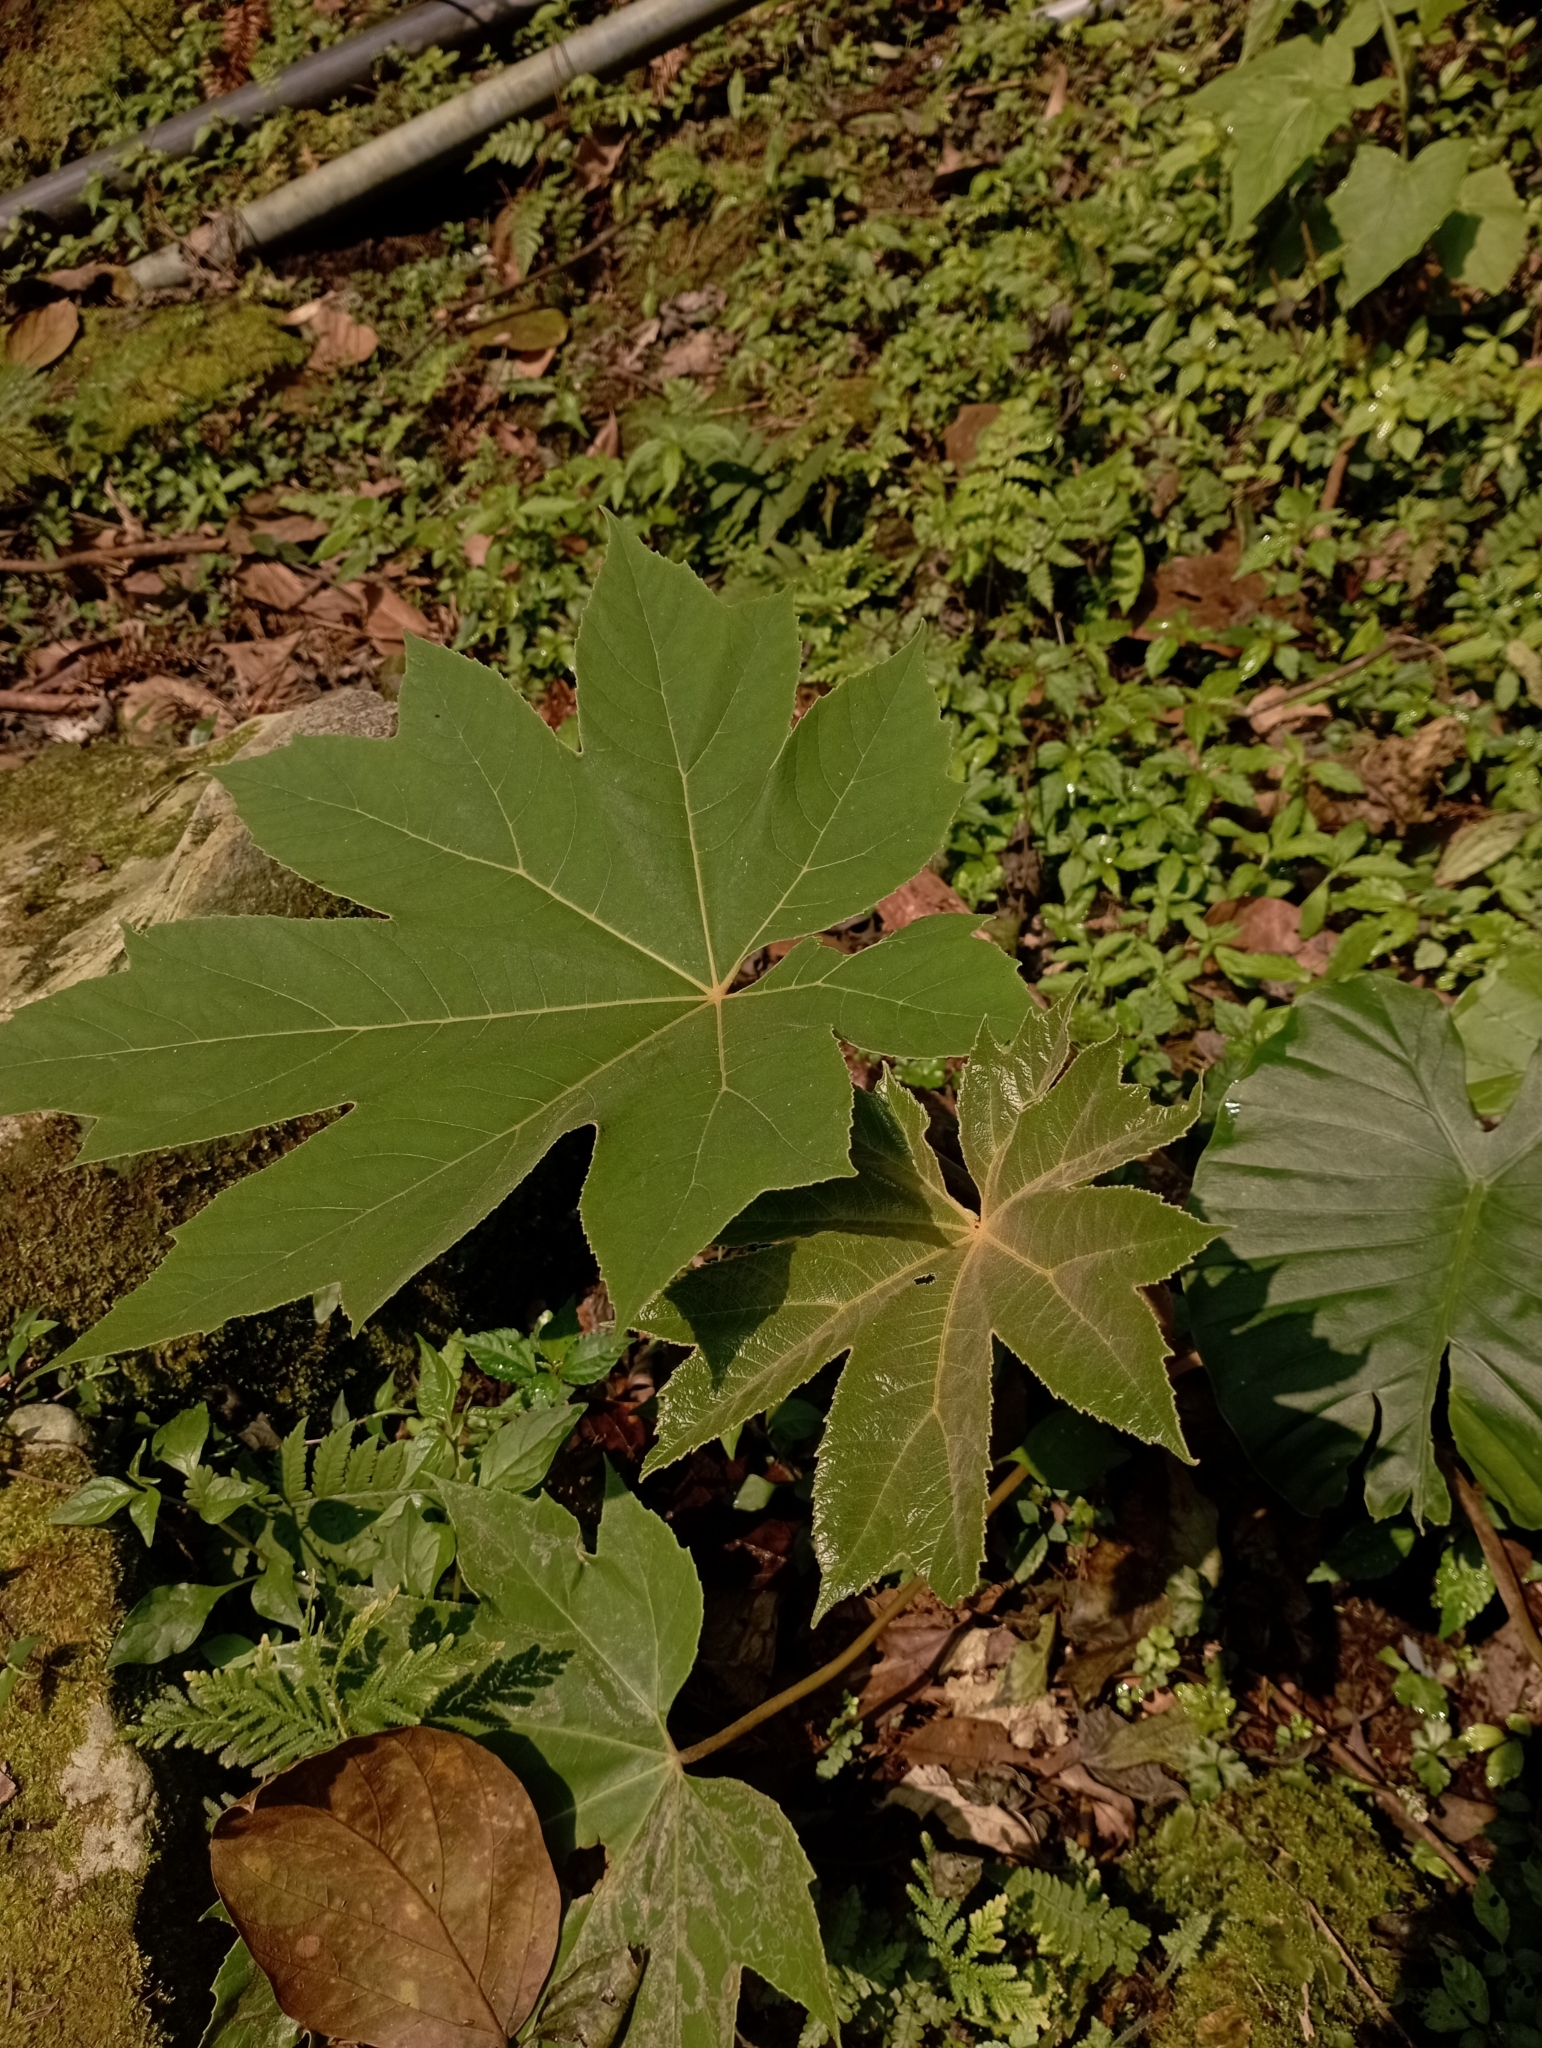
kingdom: Plantae
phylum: Tracheophyta
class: Magnoliopsida
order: Apiales
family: Araliaceae
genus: Tetrapanax
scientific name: Tetrapanax papyrifer
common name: Rice-paper plant
